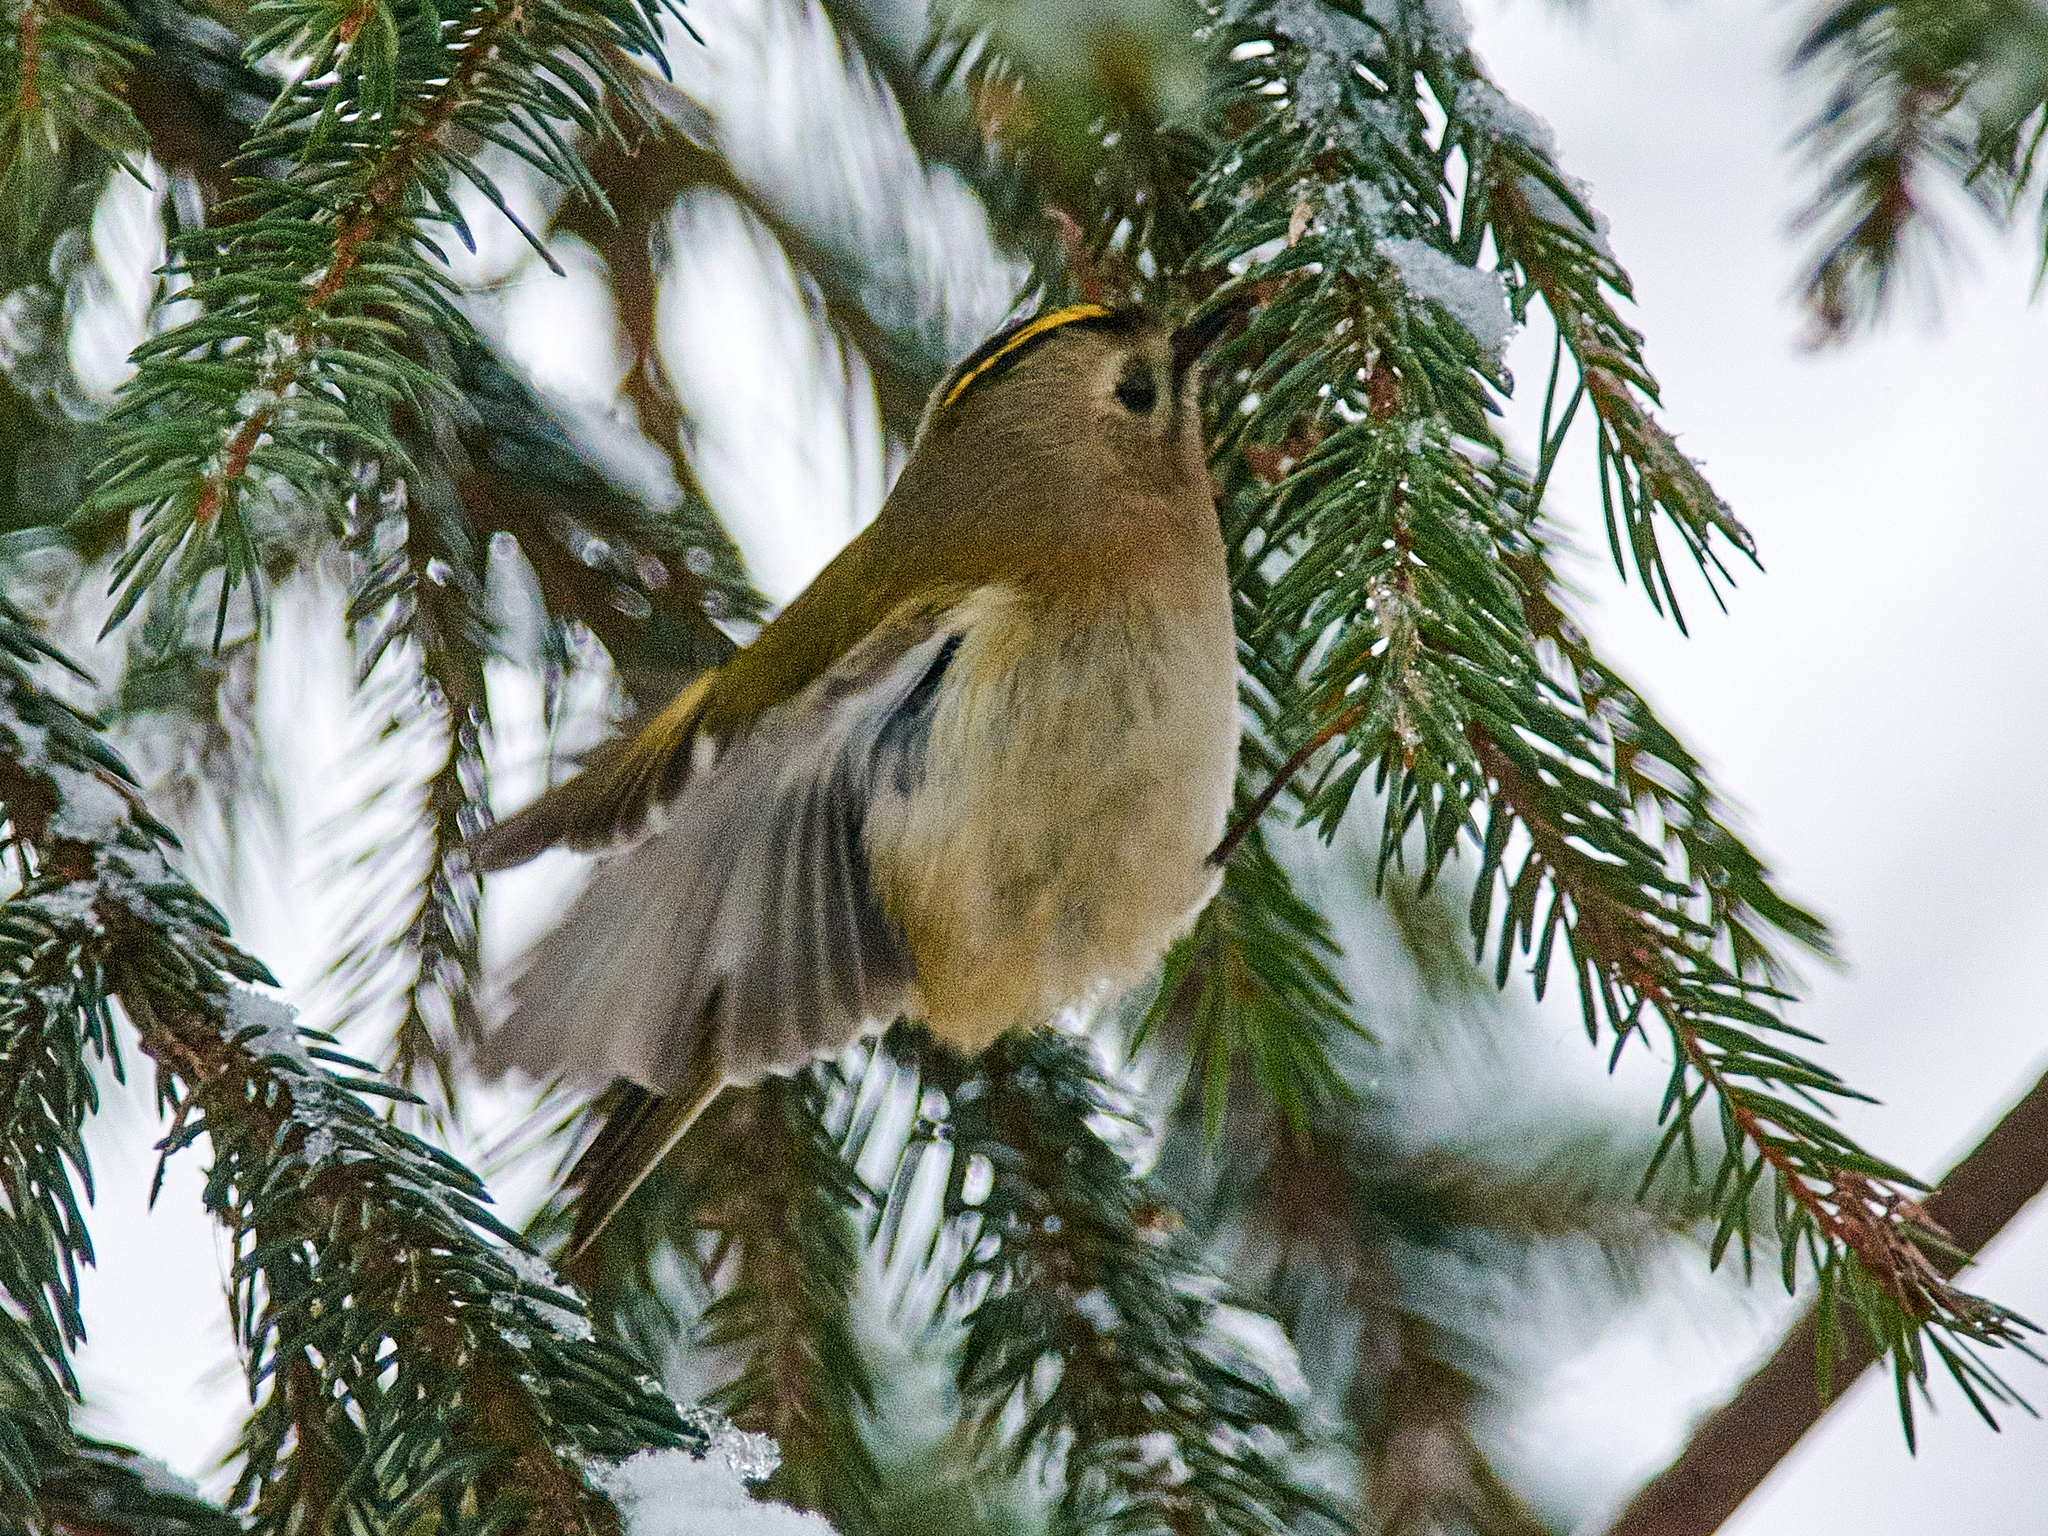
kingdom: Animalia
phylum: Chordata
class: Aves
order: Passeriformes
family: Regulidae
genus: Regulus
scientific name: Regulus regulus
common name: Goldcrest
